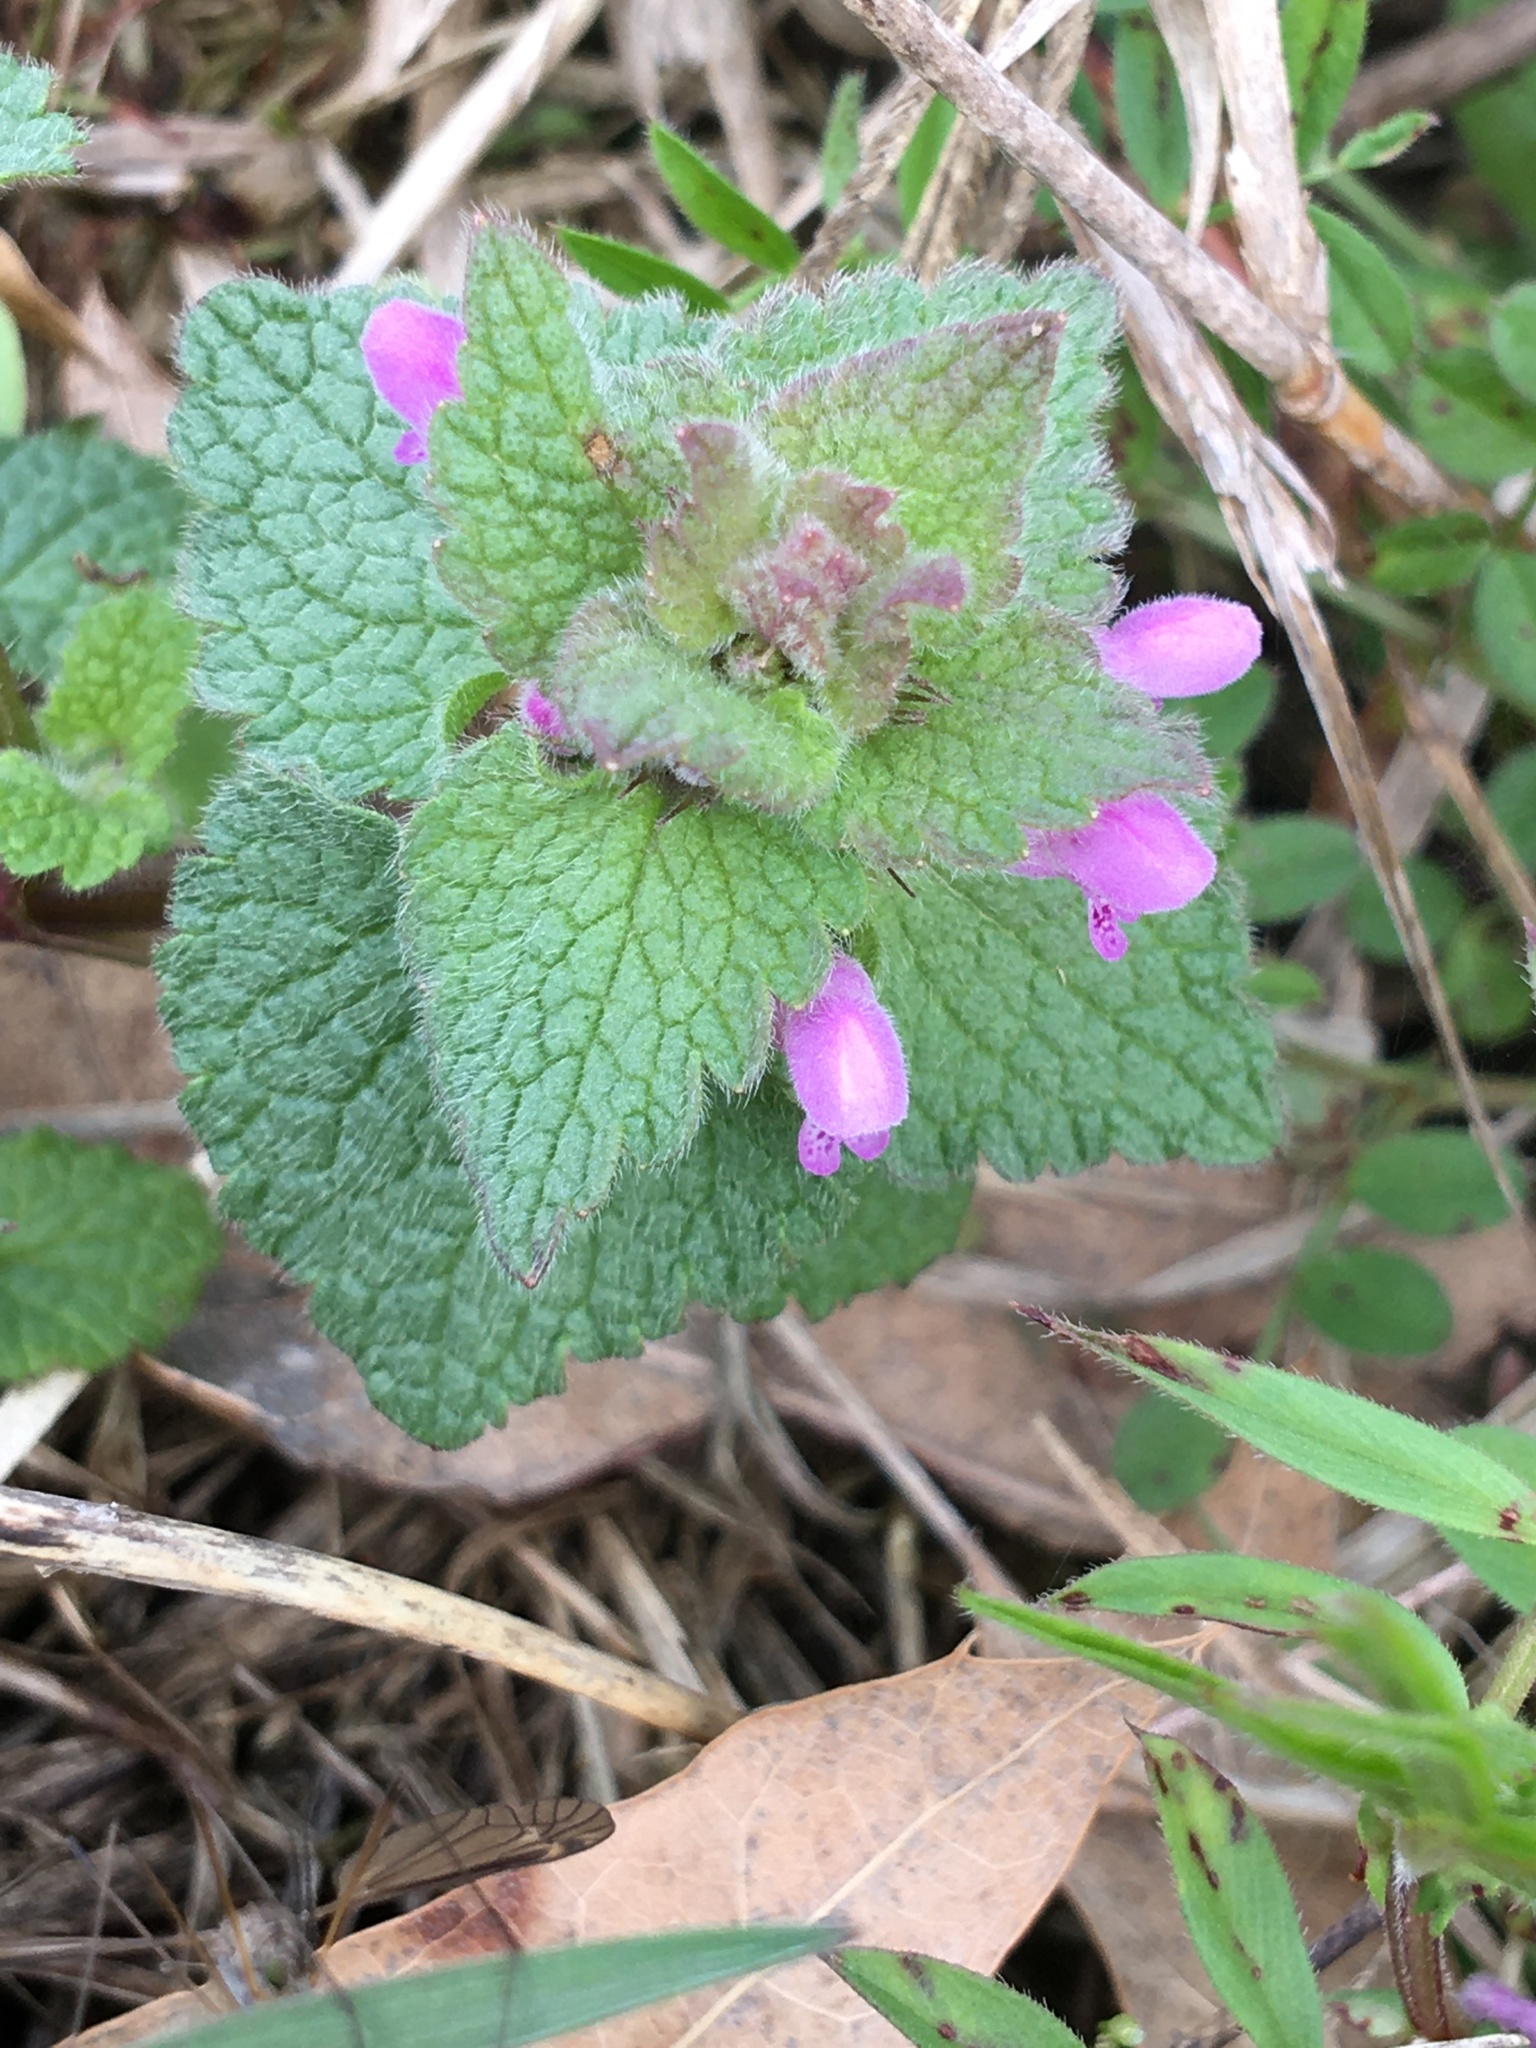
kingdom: Plantae
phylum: Tracheophyta
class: Magnoliopsida
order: Lamiales
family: Lamiaceae
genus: Lamium
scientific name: Lamium purpureum
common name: Red dead-nettle
